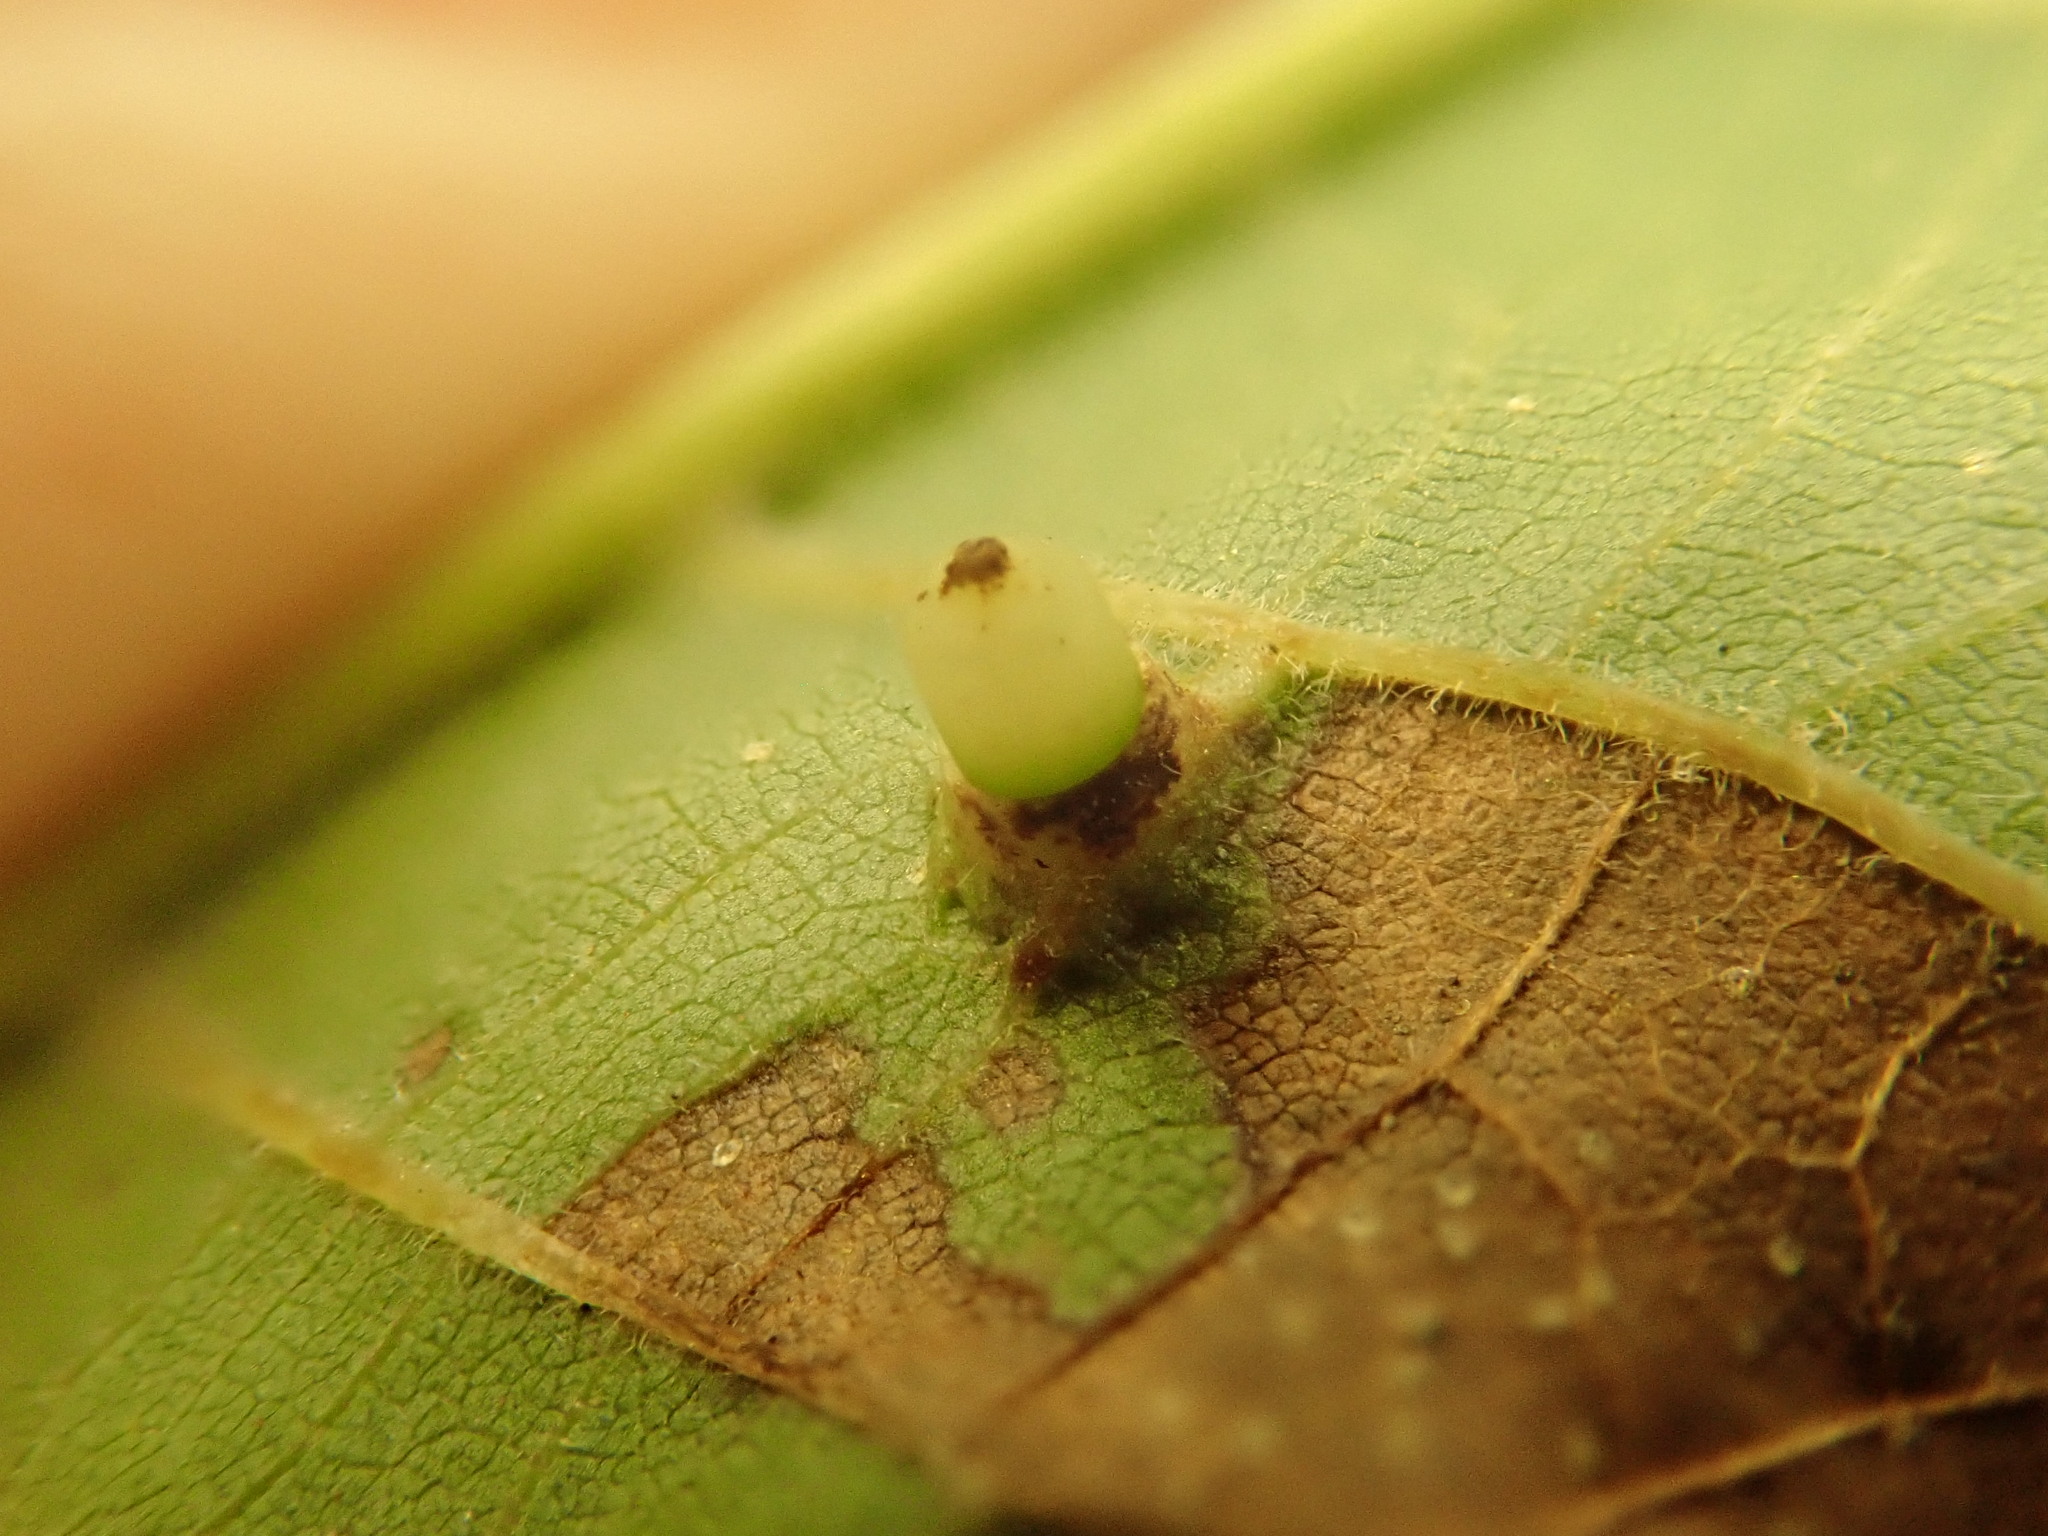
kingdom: Animalia
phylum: Arthropoda
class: Insecta
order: Diptera
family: Cecidomyiidae
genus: Caryomyia
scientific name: Caryomyia tubicola
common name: Hickory bullet gall midge
